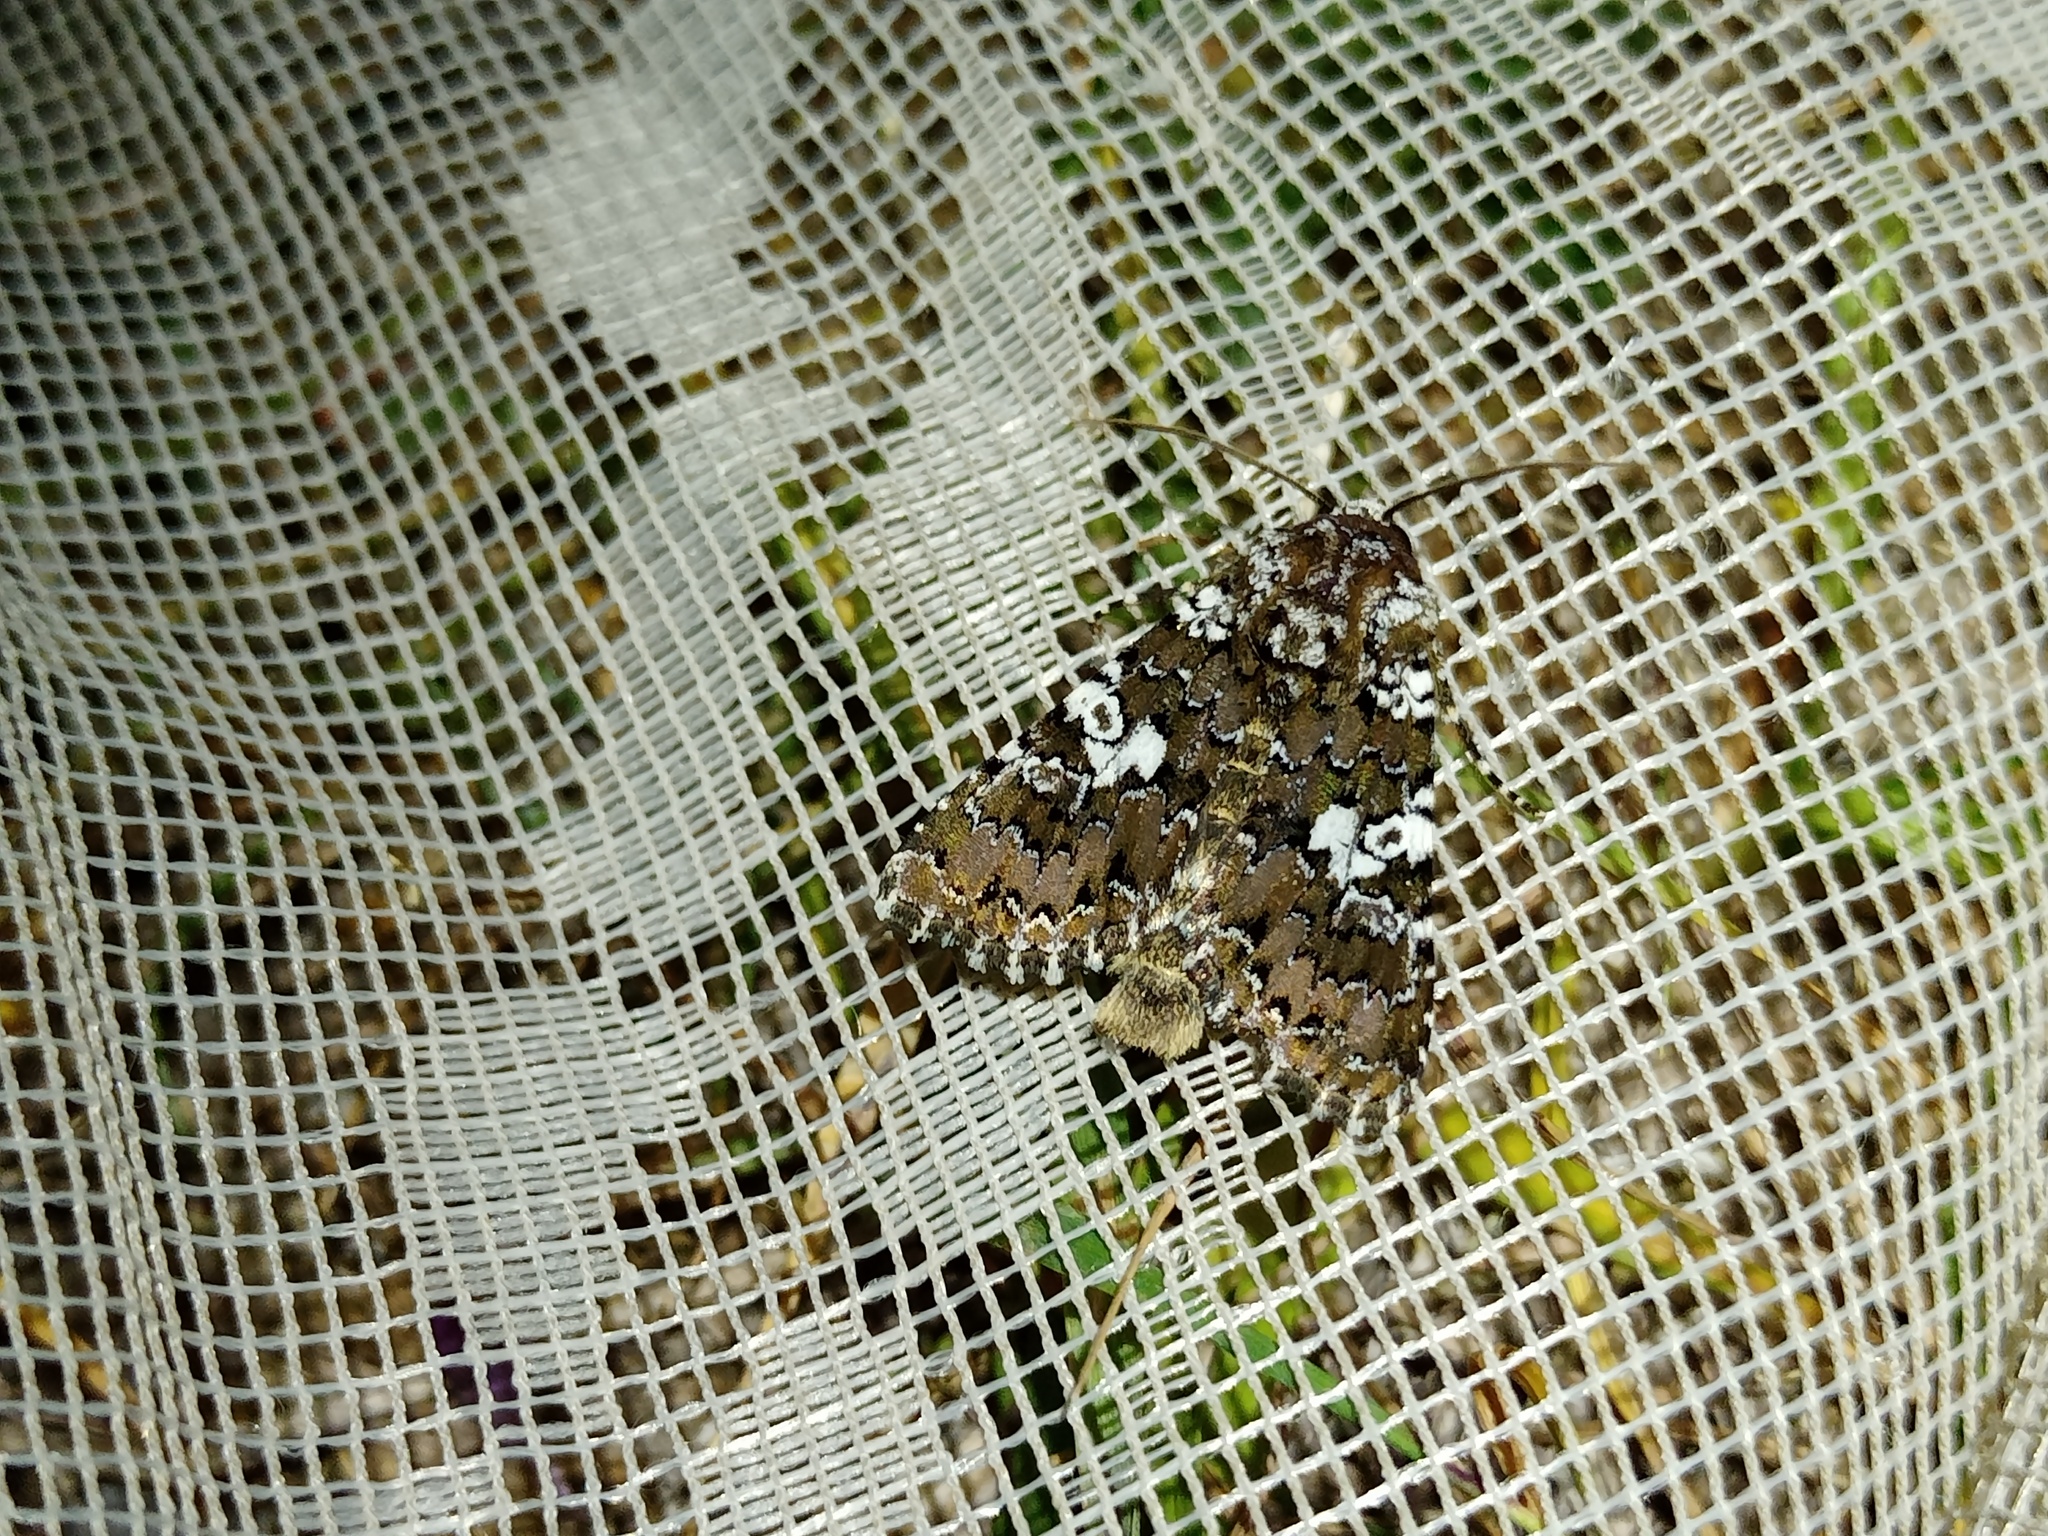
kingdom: Animalia
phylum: Arthropoda
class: Insecta
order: Lepidoptera
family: Noctuidae
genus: Hadena
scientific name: Hadena albimacula
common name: White spot
